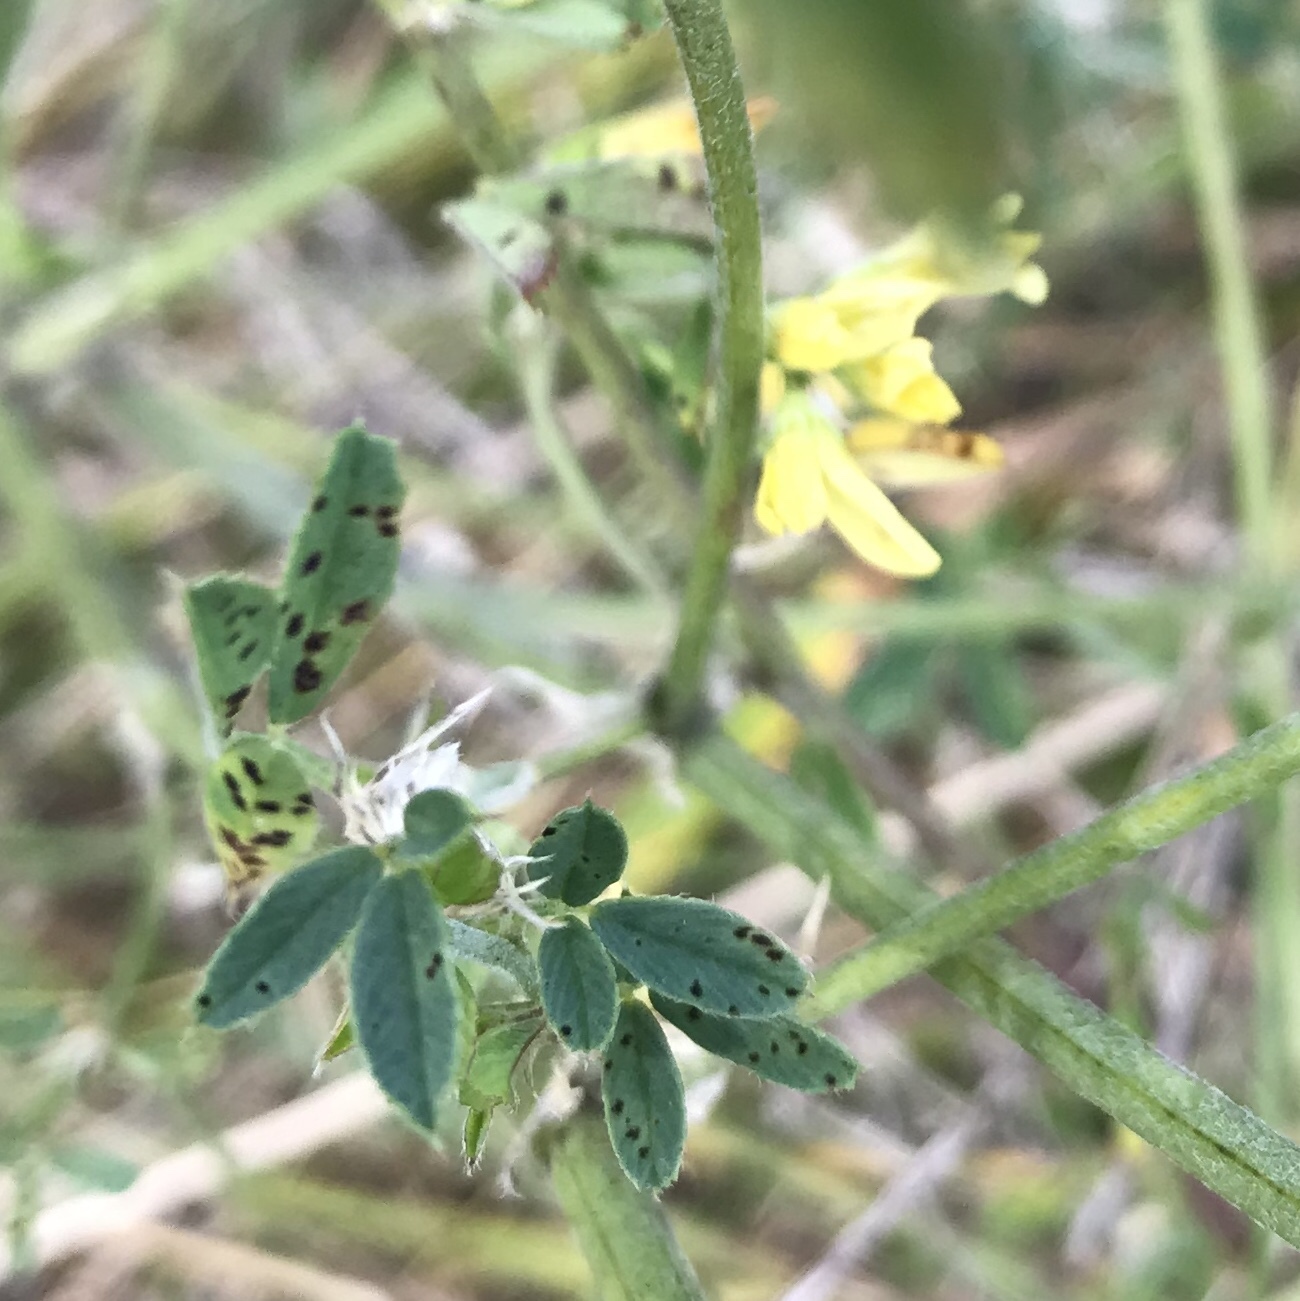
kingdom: Plantae
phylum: Tracheophyta
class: Magnoliopsida
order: Fabales
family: Fabaceae
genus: Medicago
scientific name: Medicago falcata
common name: Sickle medick
